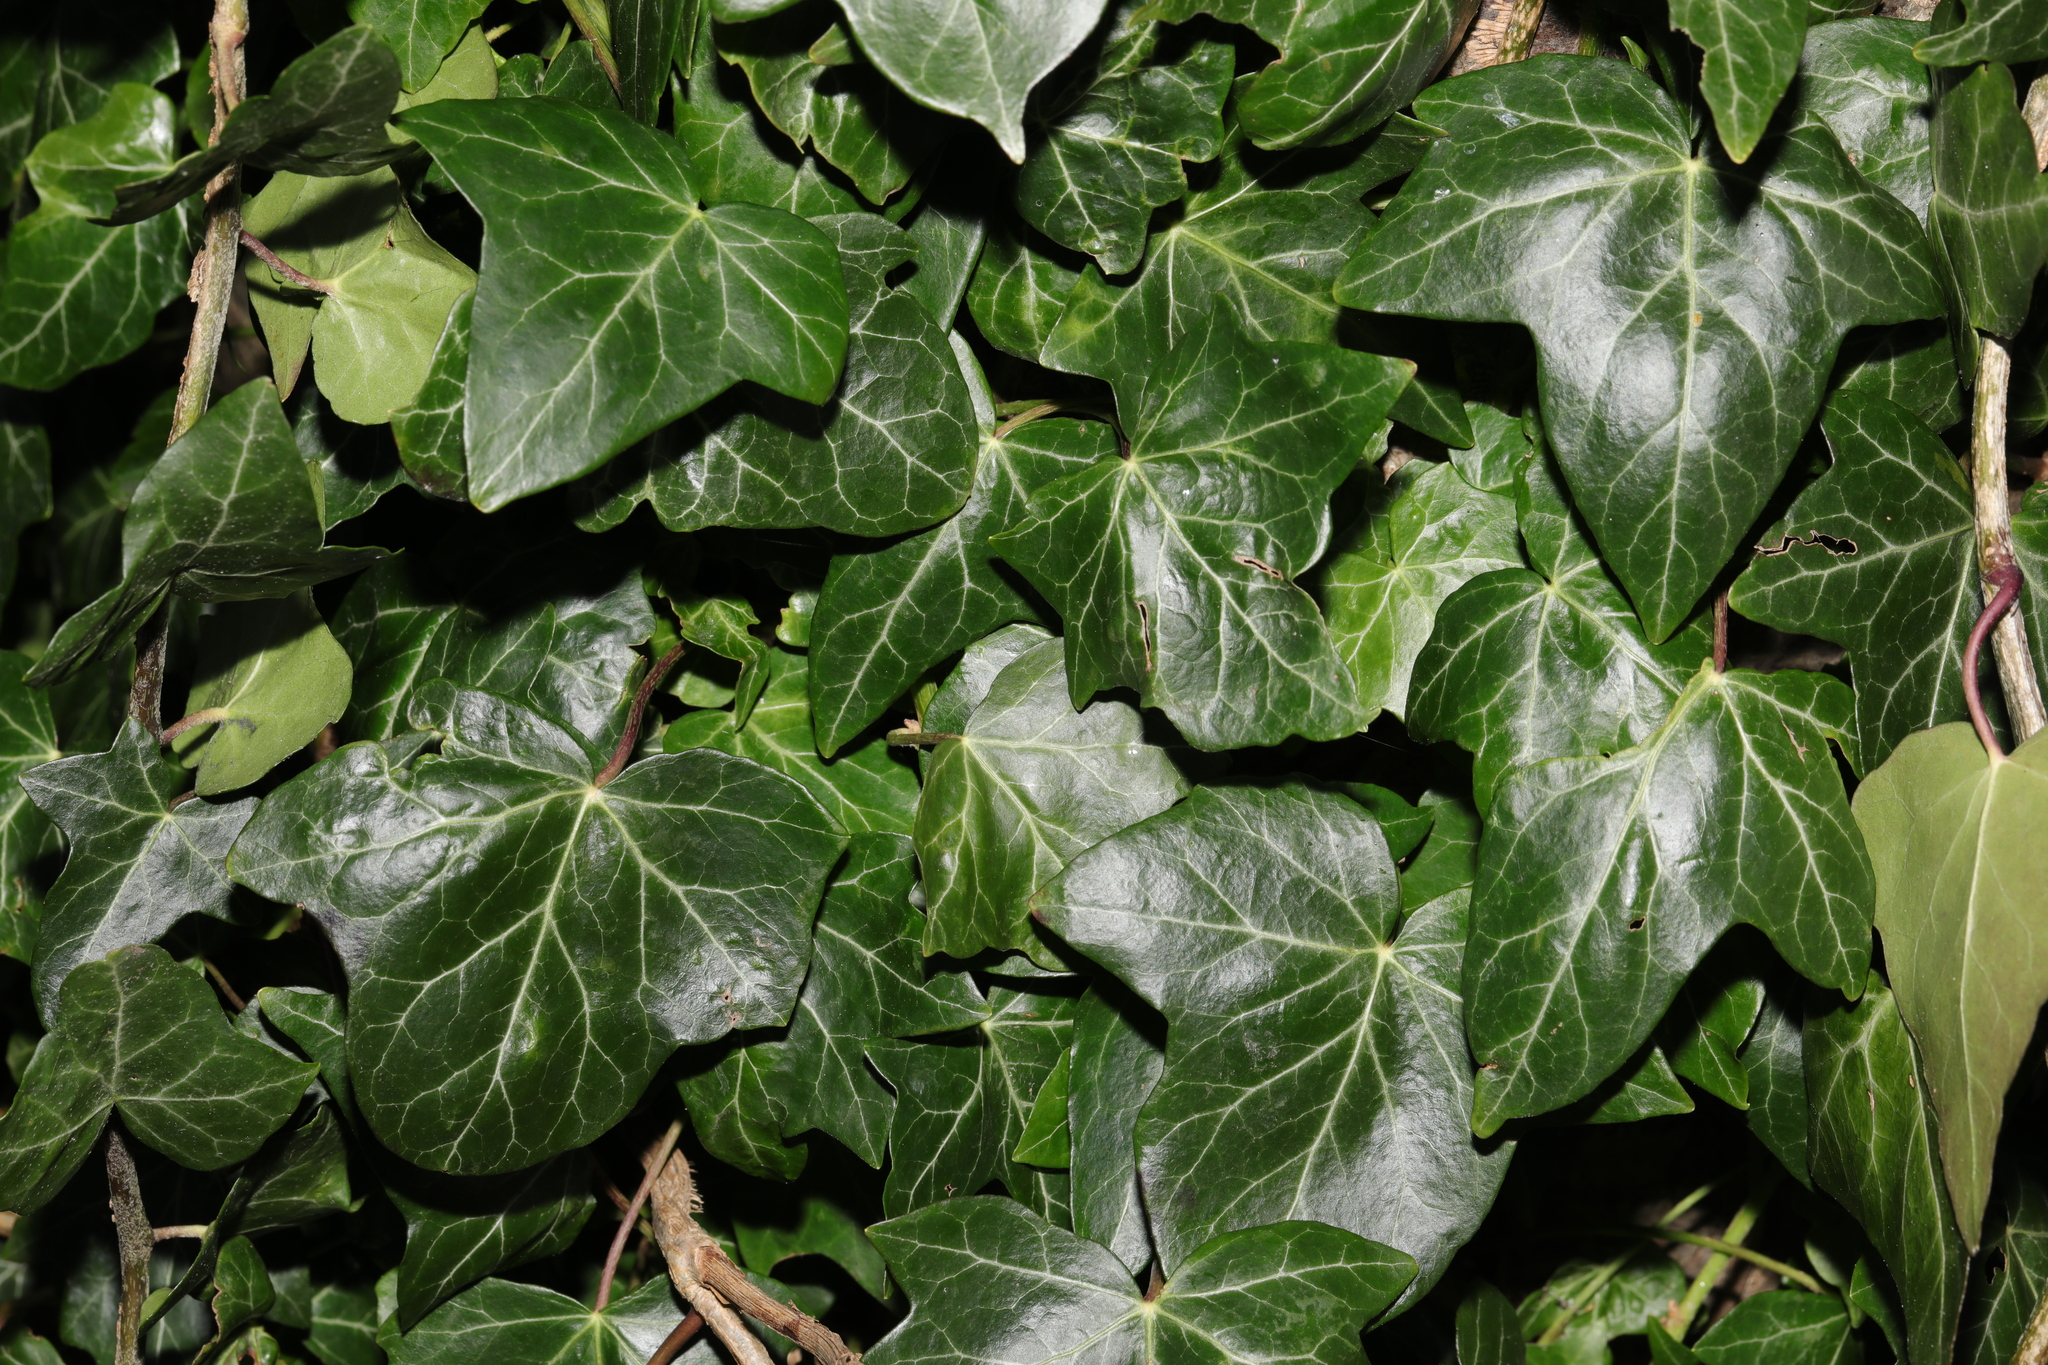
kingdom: Plantae
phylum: Tracheophyta
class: Magnoliopsida
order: Apiales
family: Araliaceae
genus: Hedera
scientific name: Hedera helix
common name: Ivy
